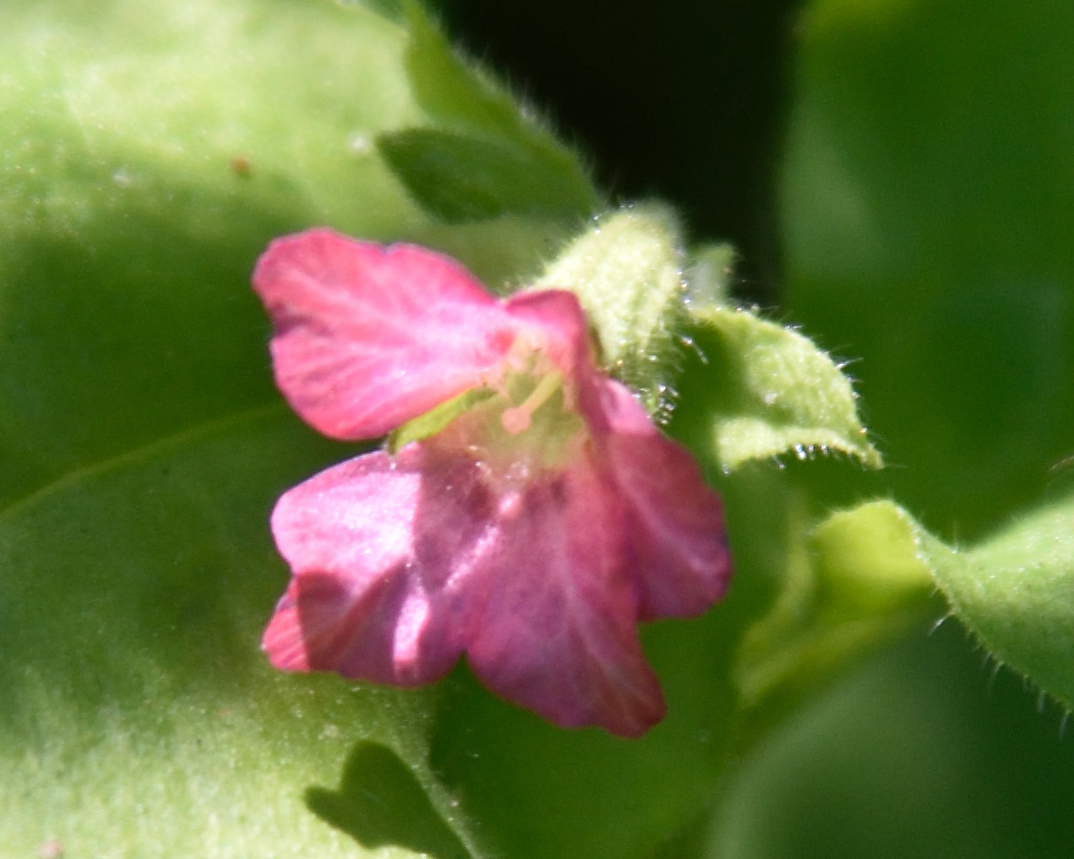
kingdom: Plantae
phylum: Tracheophyta
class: Magnoliopsida
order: Boraginales
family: Boraginaceae
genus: Pulmonaria
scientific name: Pulmonaria obscura
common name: Suffolk lungwort
